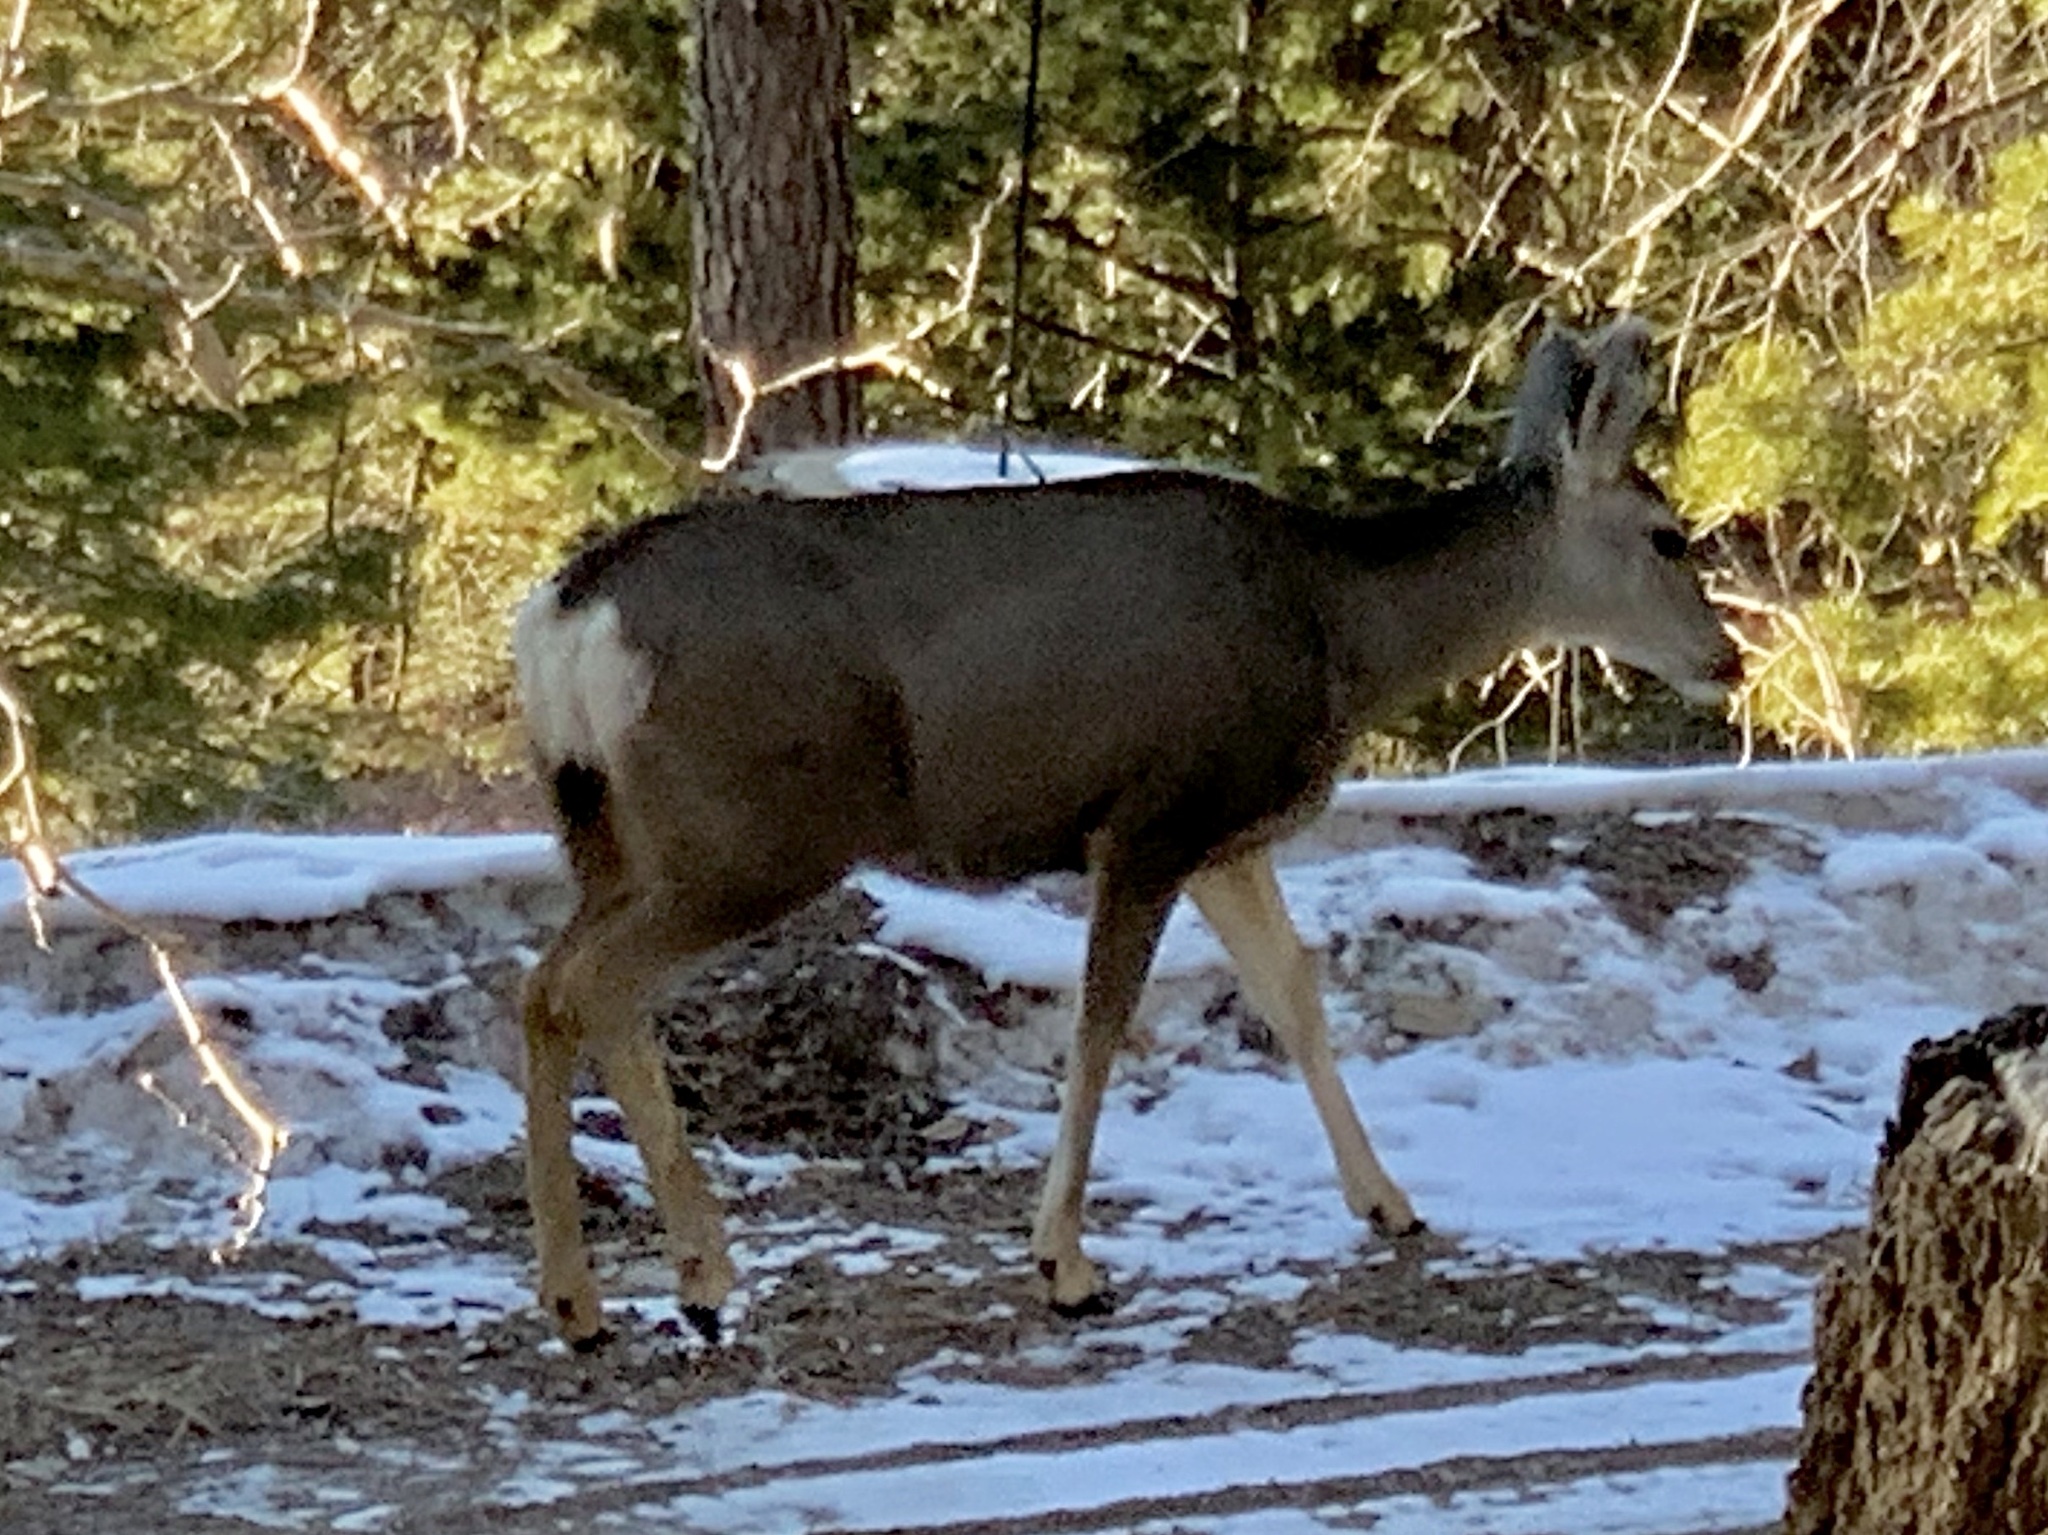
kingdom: Animalia
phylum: Chordata
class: Mammalia
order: Artiodactyla
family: Cervidae
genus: Odocoileus
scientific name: Odocoileus hemionus
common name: Mule deer
